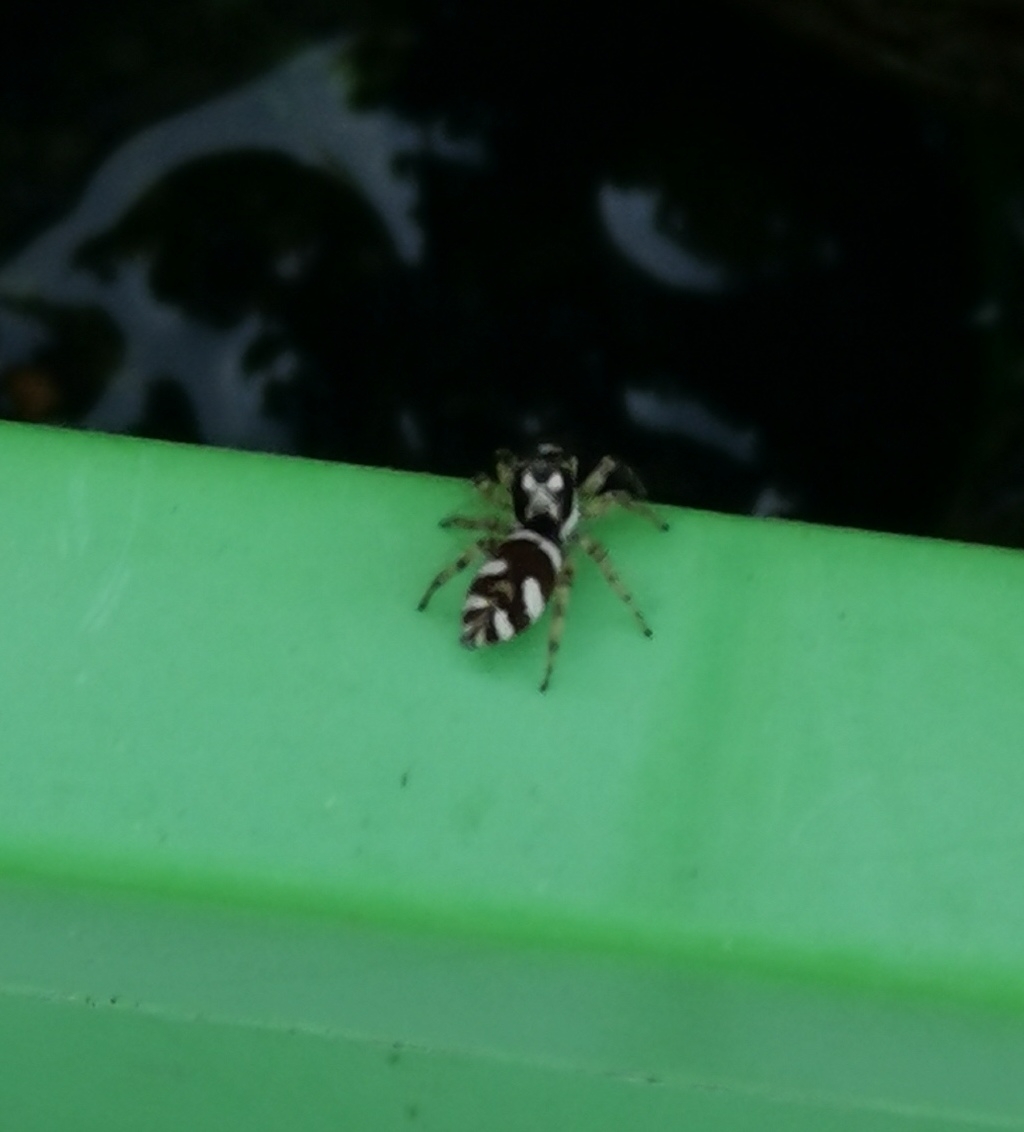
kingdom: Animalia
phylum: Arthropoda
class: Arachnida
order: Araneae
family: Salticidae
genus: Salticus
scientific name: Salticus scenicus
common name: Zebra jumper
